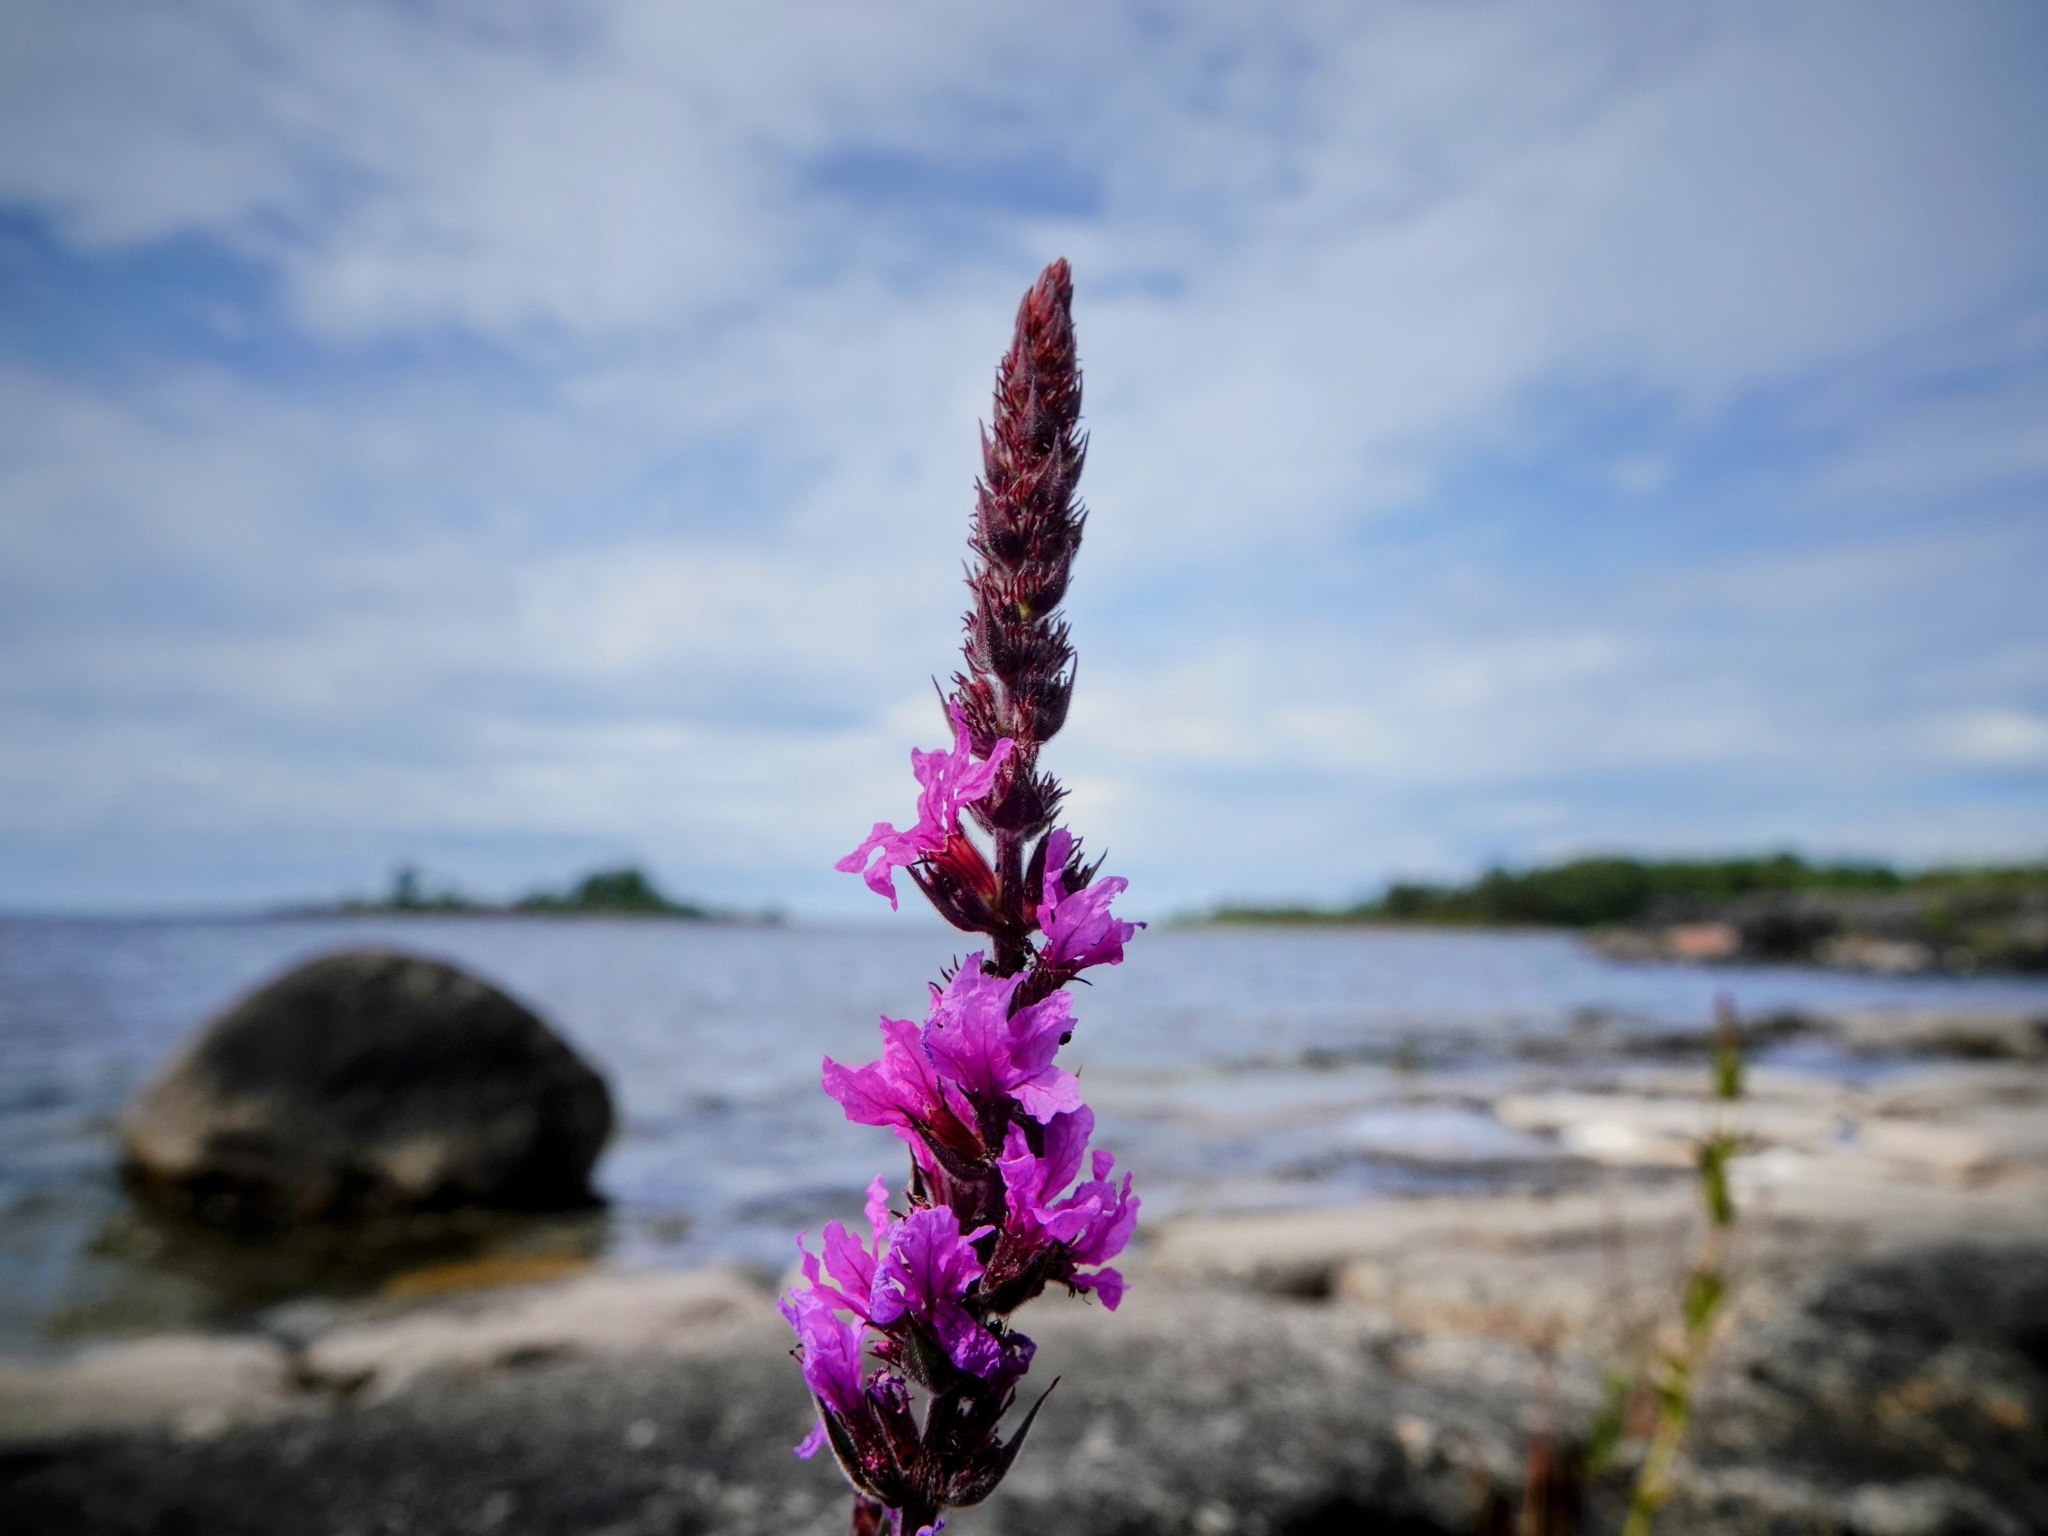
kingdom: Plantae
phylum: Tracheophyta
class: Magnoliopsida
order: Myrtales
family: Lythraceae
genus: Lythrum
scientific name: Lythrum salicaria
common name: Purple loosestrife
